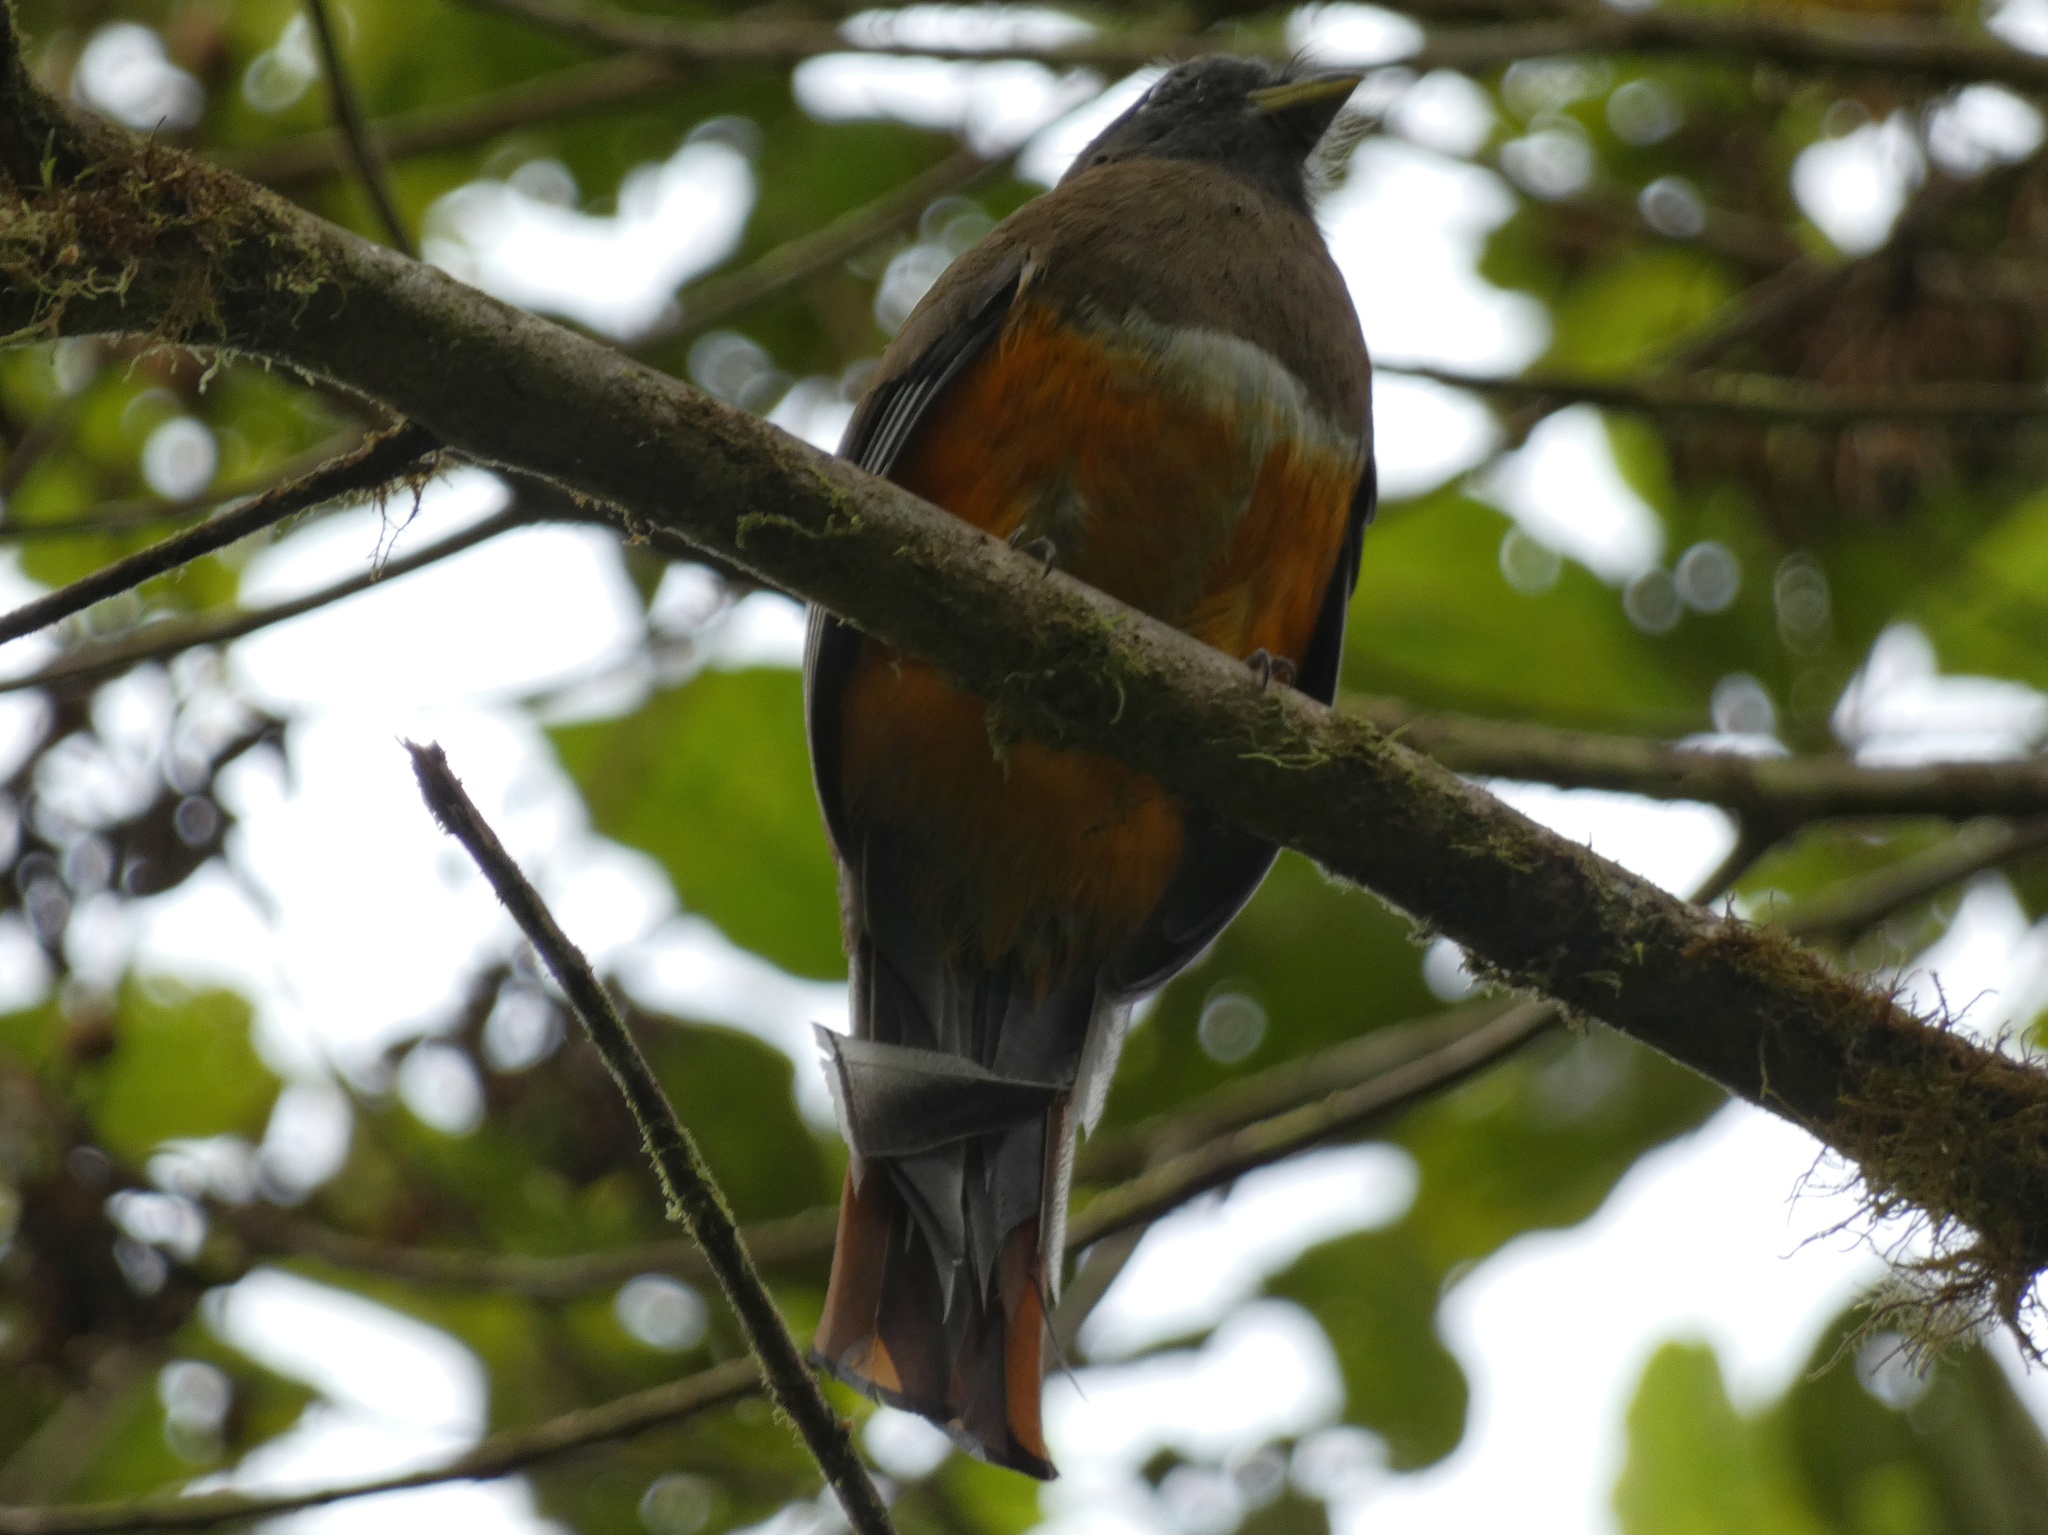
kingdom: Animalia
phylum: Chordata
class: Aves
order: Trogoniformes
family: Trogonidae
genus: Trogon
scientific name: Trogon rufus
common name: Black-throated trogon
